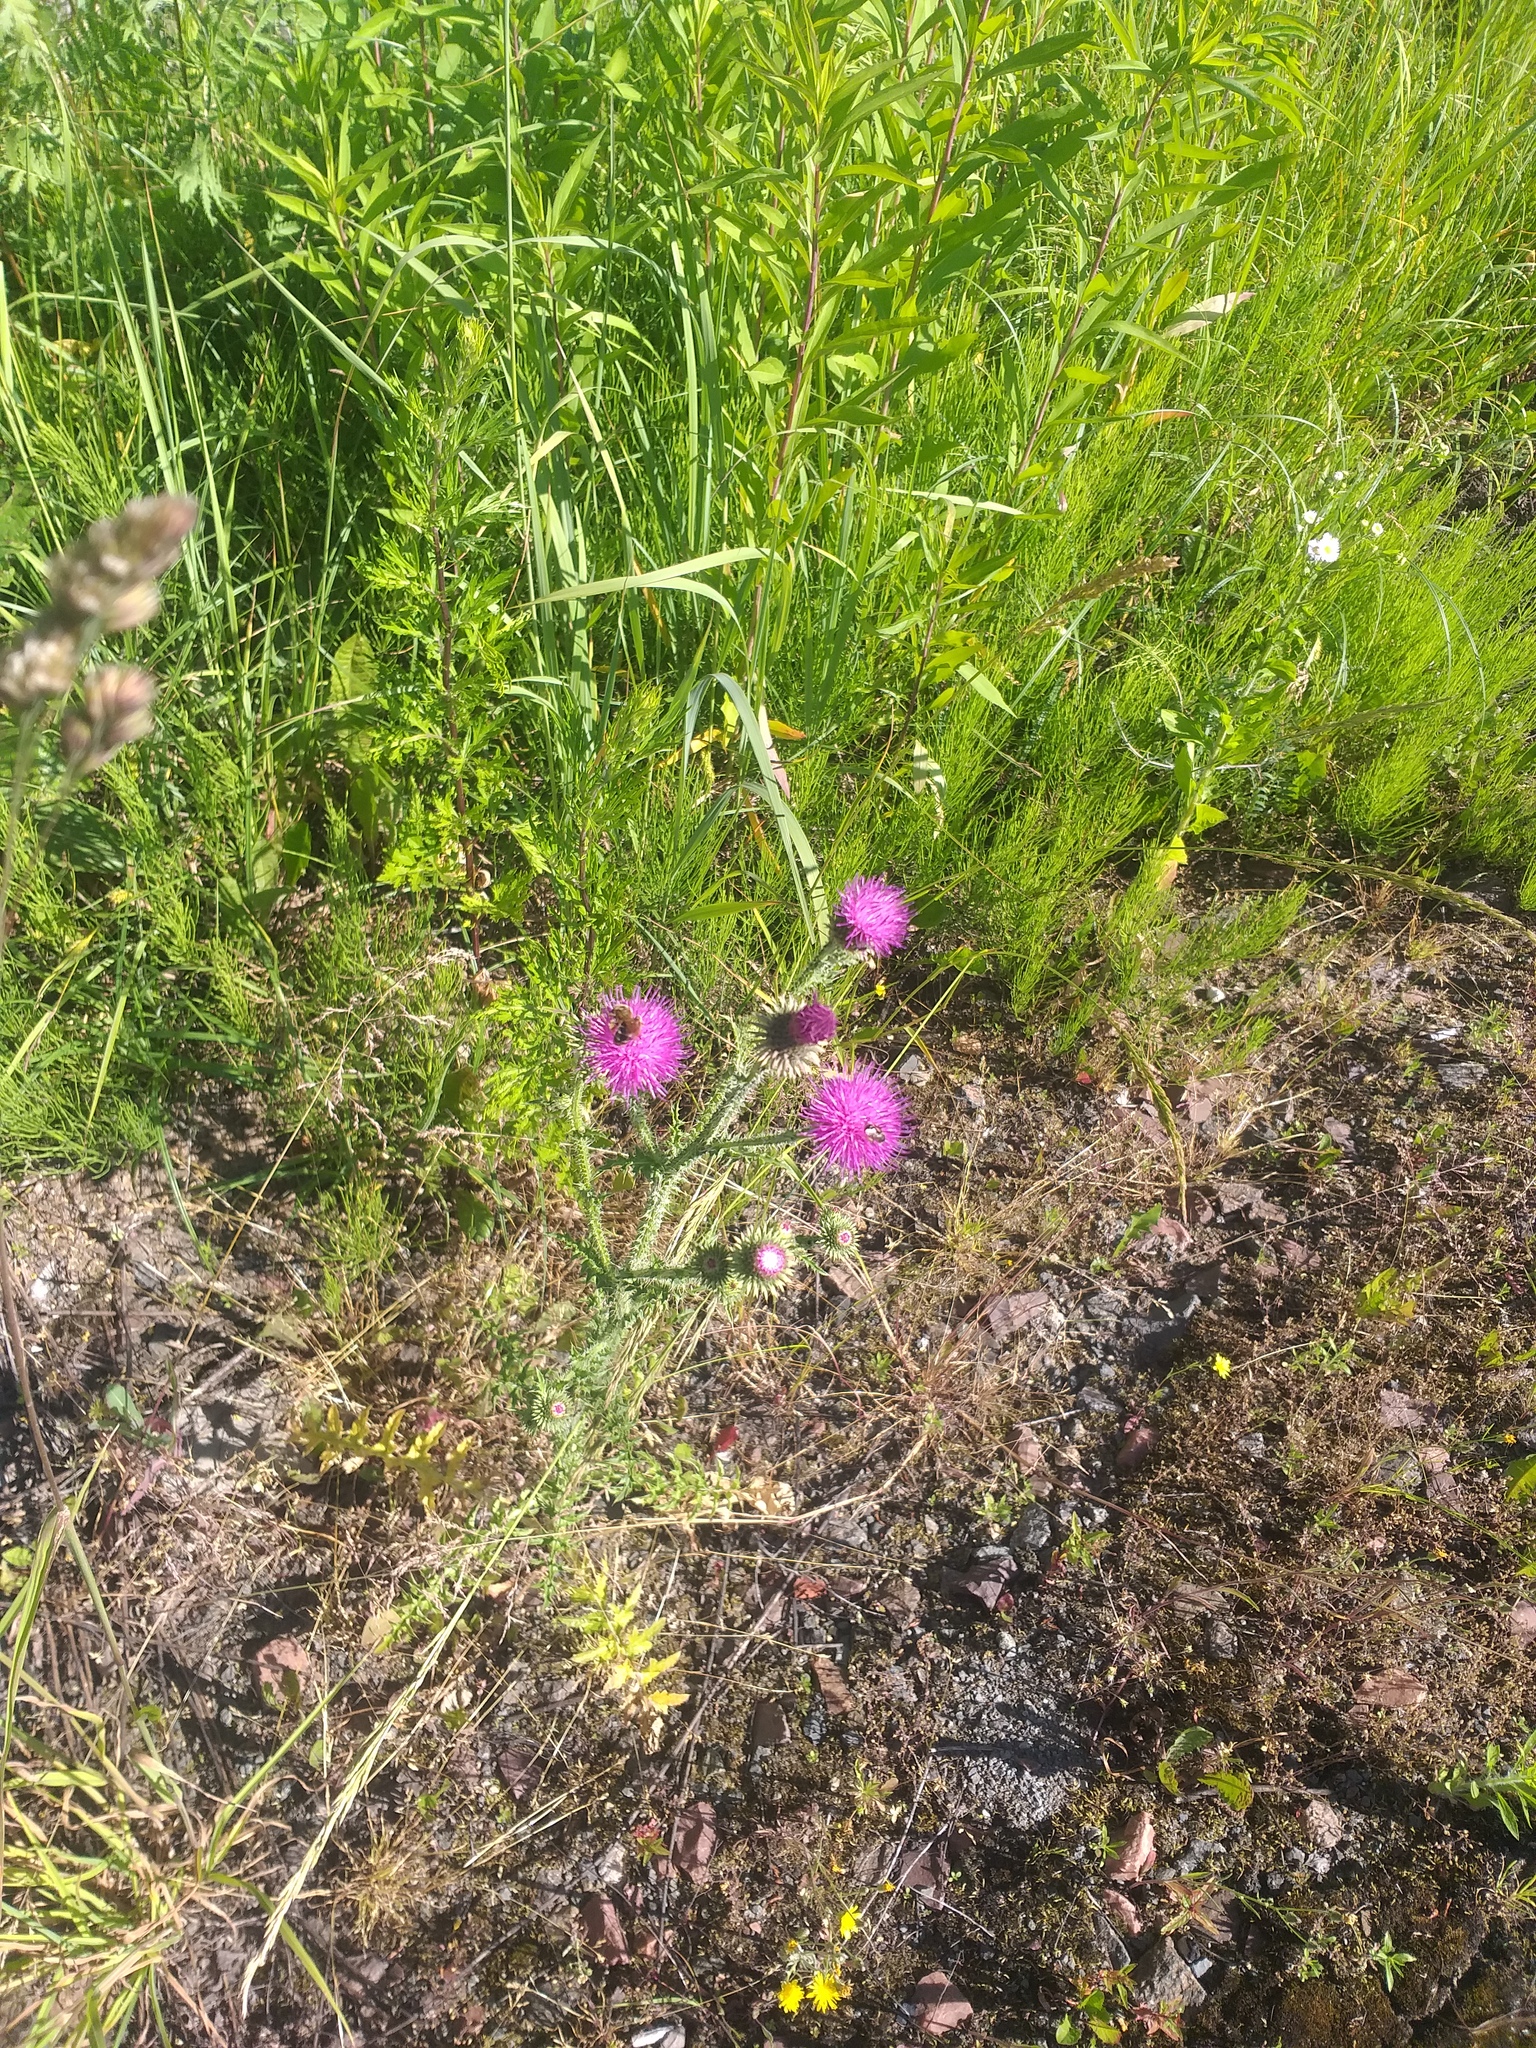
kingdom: Plantae
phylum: Tracheophyta
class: Magnoliopsida
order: Asterales
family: Asteraceae
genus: Carduus
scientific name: Carduus acanthoides
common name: Plumeless thistle
